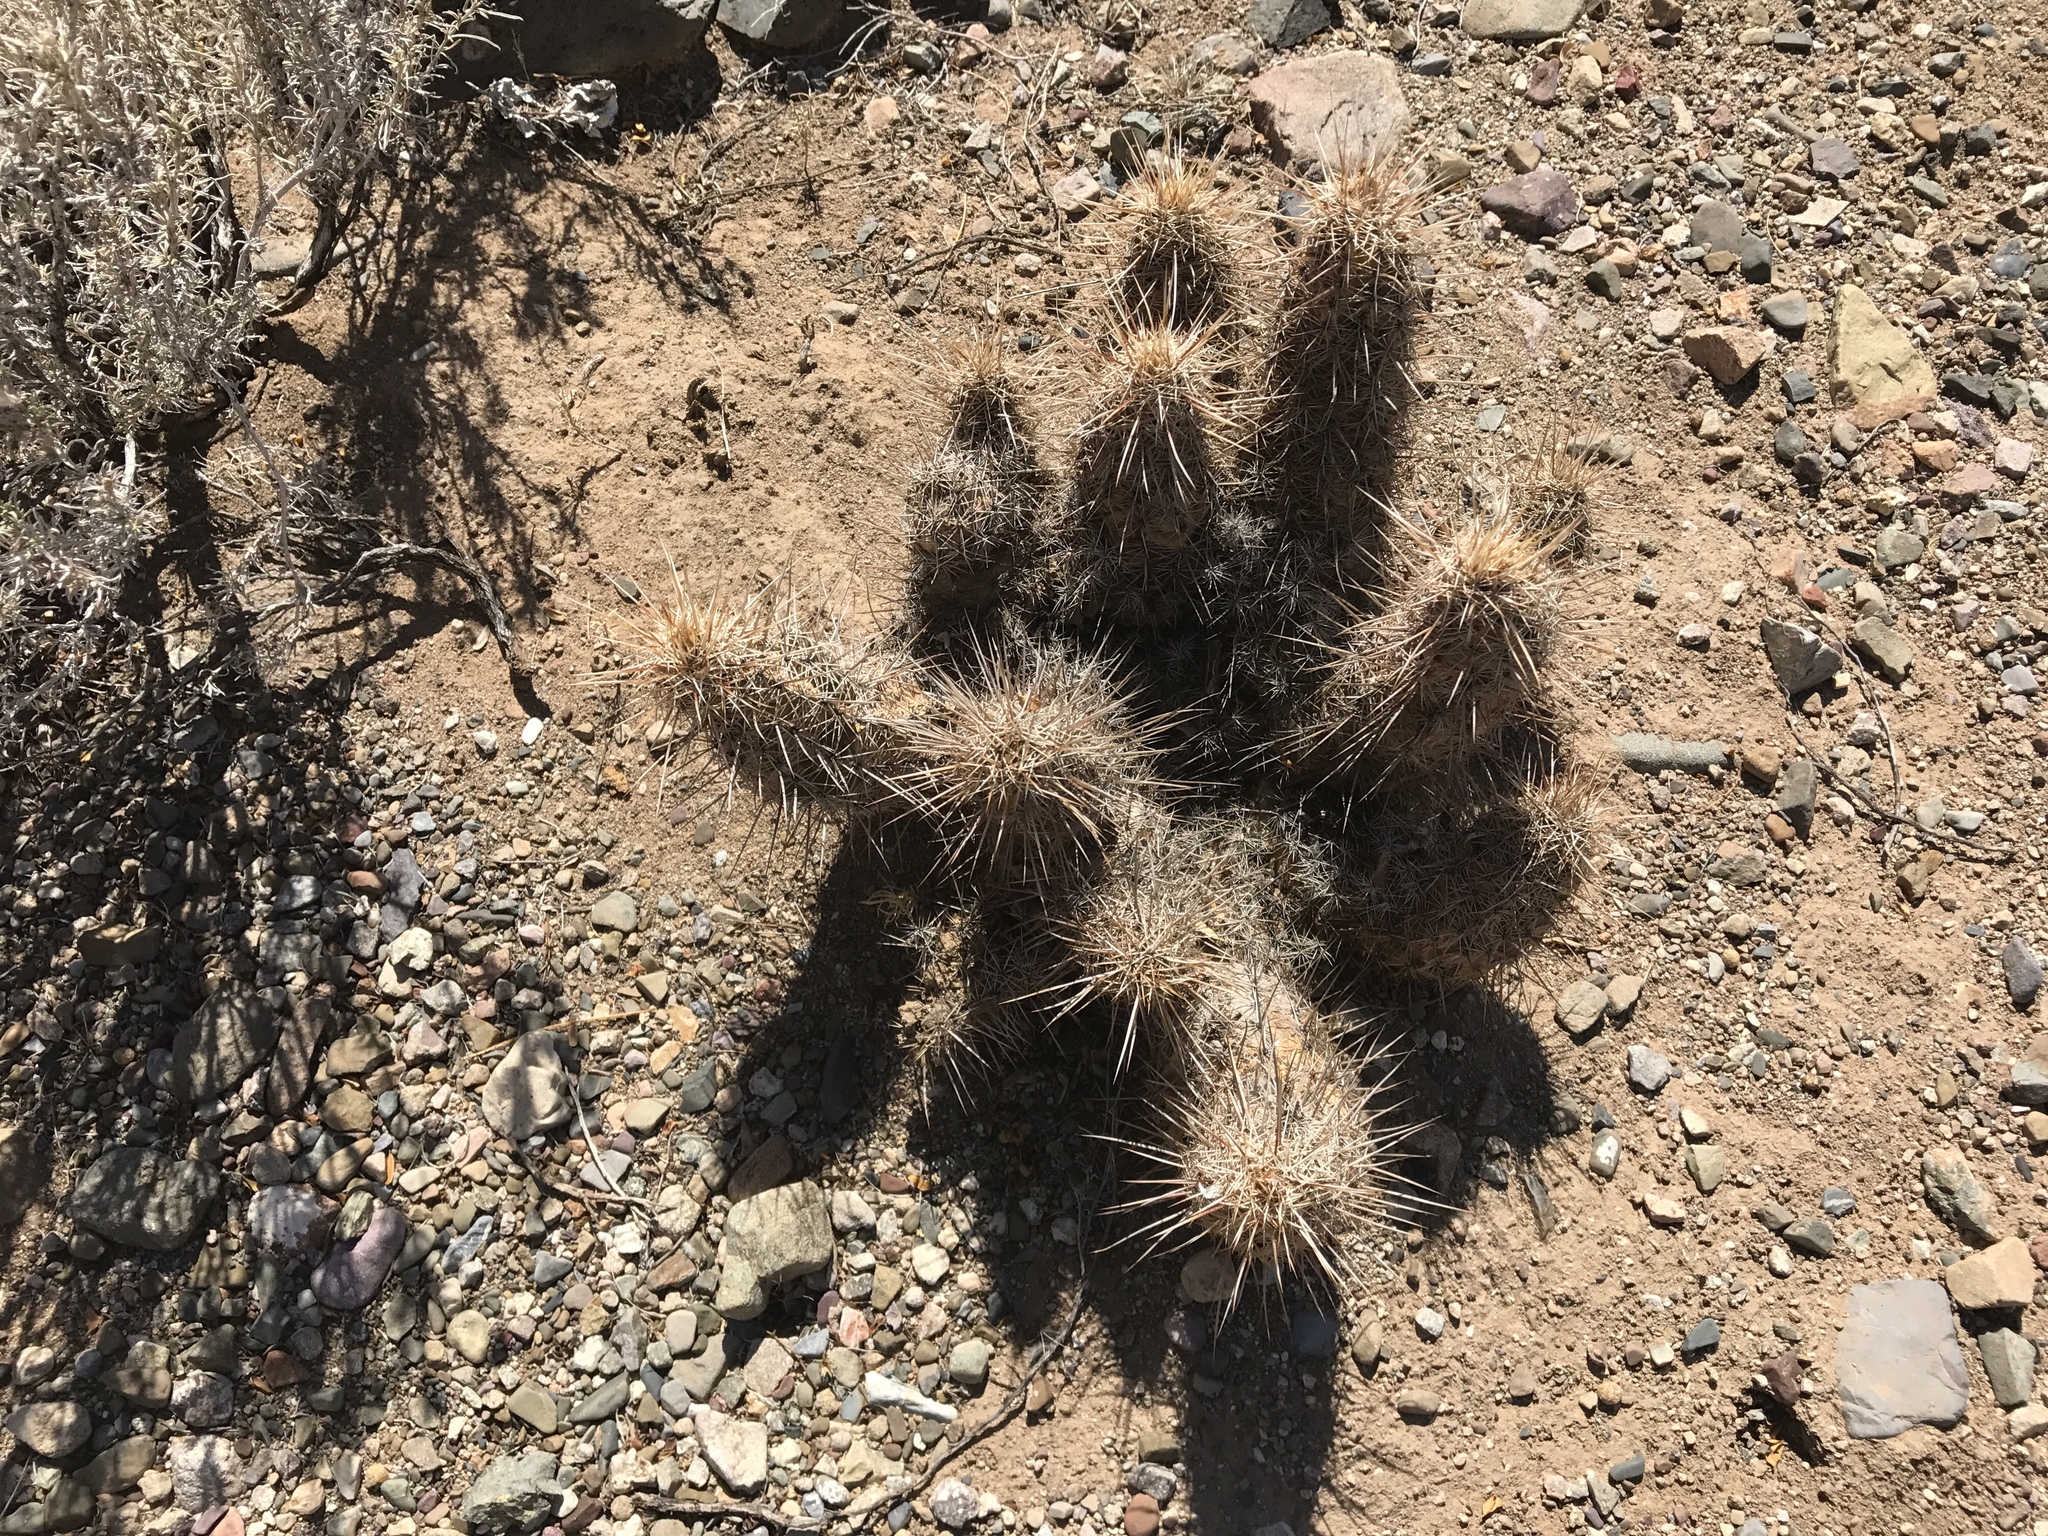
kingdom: Plantae
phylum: Tracheophyta
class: Magnoliopsida
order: Caryophyllales
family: Cactaceae
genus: Echinocereus
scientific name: Echinocereus fasciculatus
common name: Bundle hedgehog
